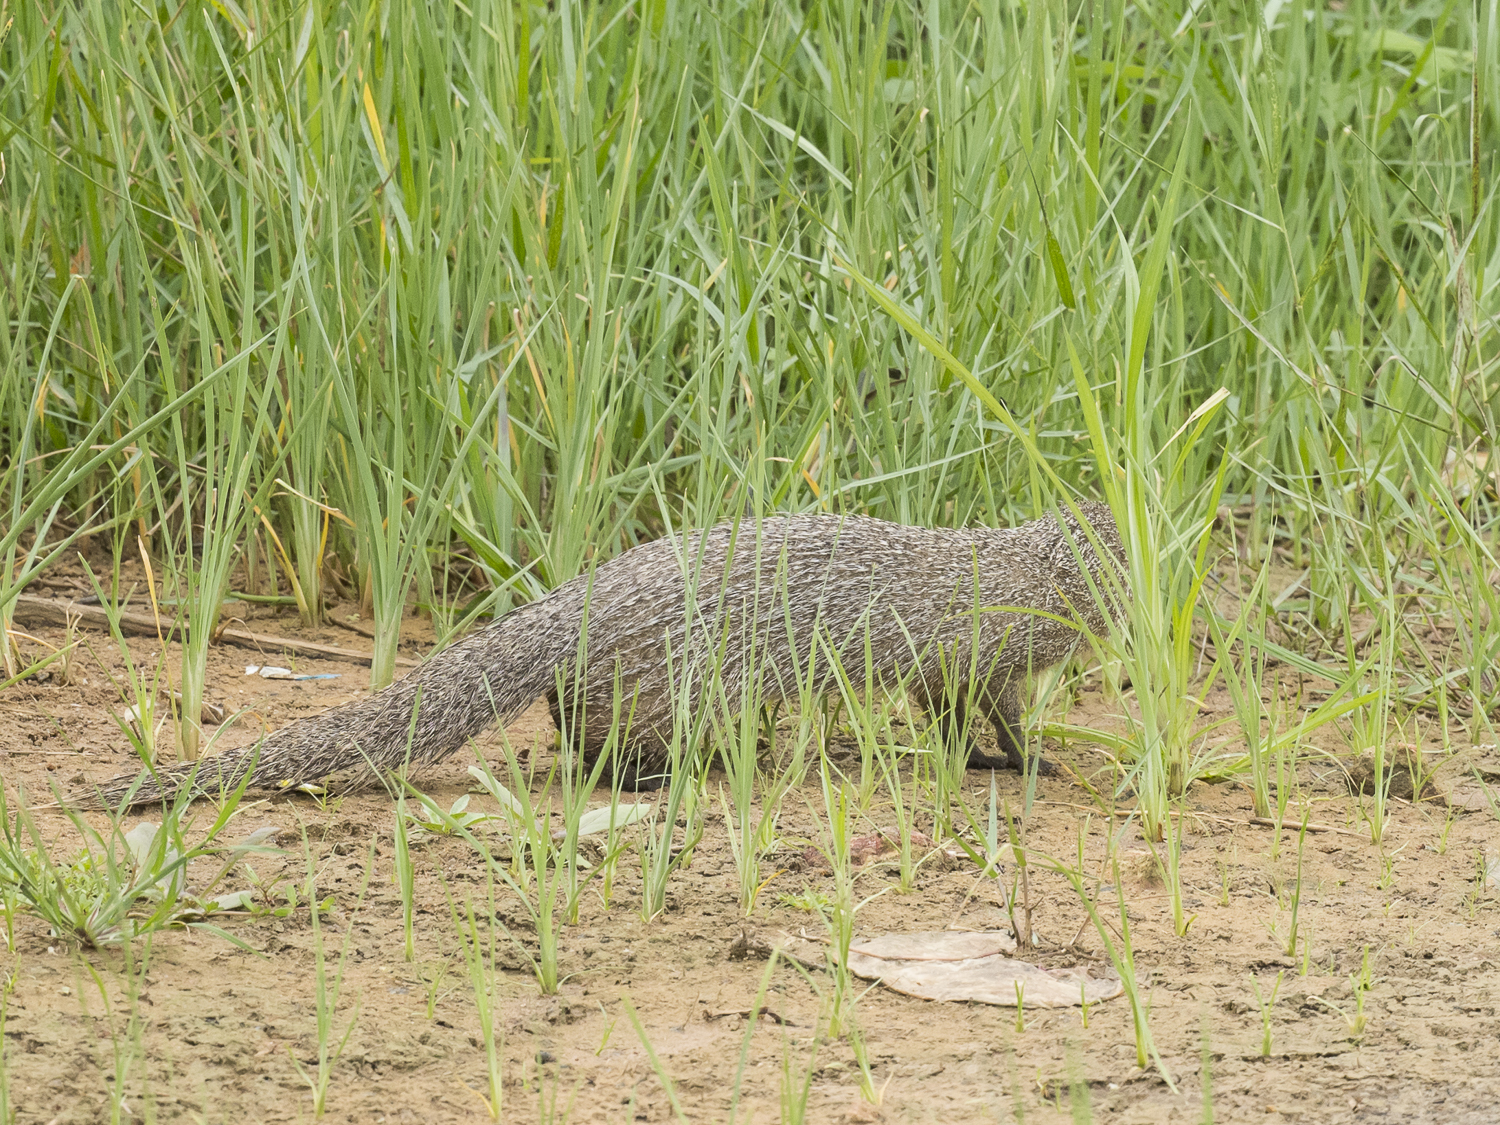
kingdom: Animalia
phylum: Chordata
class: Mammalia
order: Carnivora
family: Herpestidae
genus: Herpestes
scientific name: Herpestes edwardsi
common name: Indian gray mongoose
